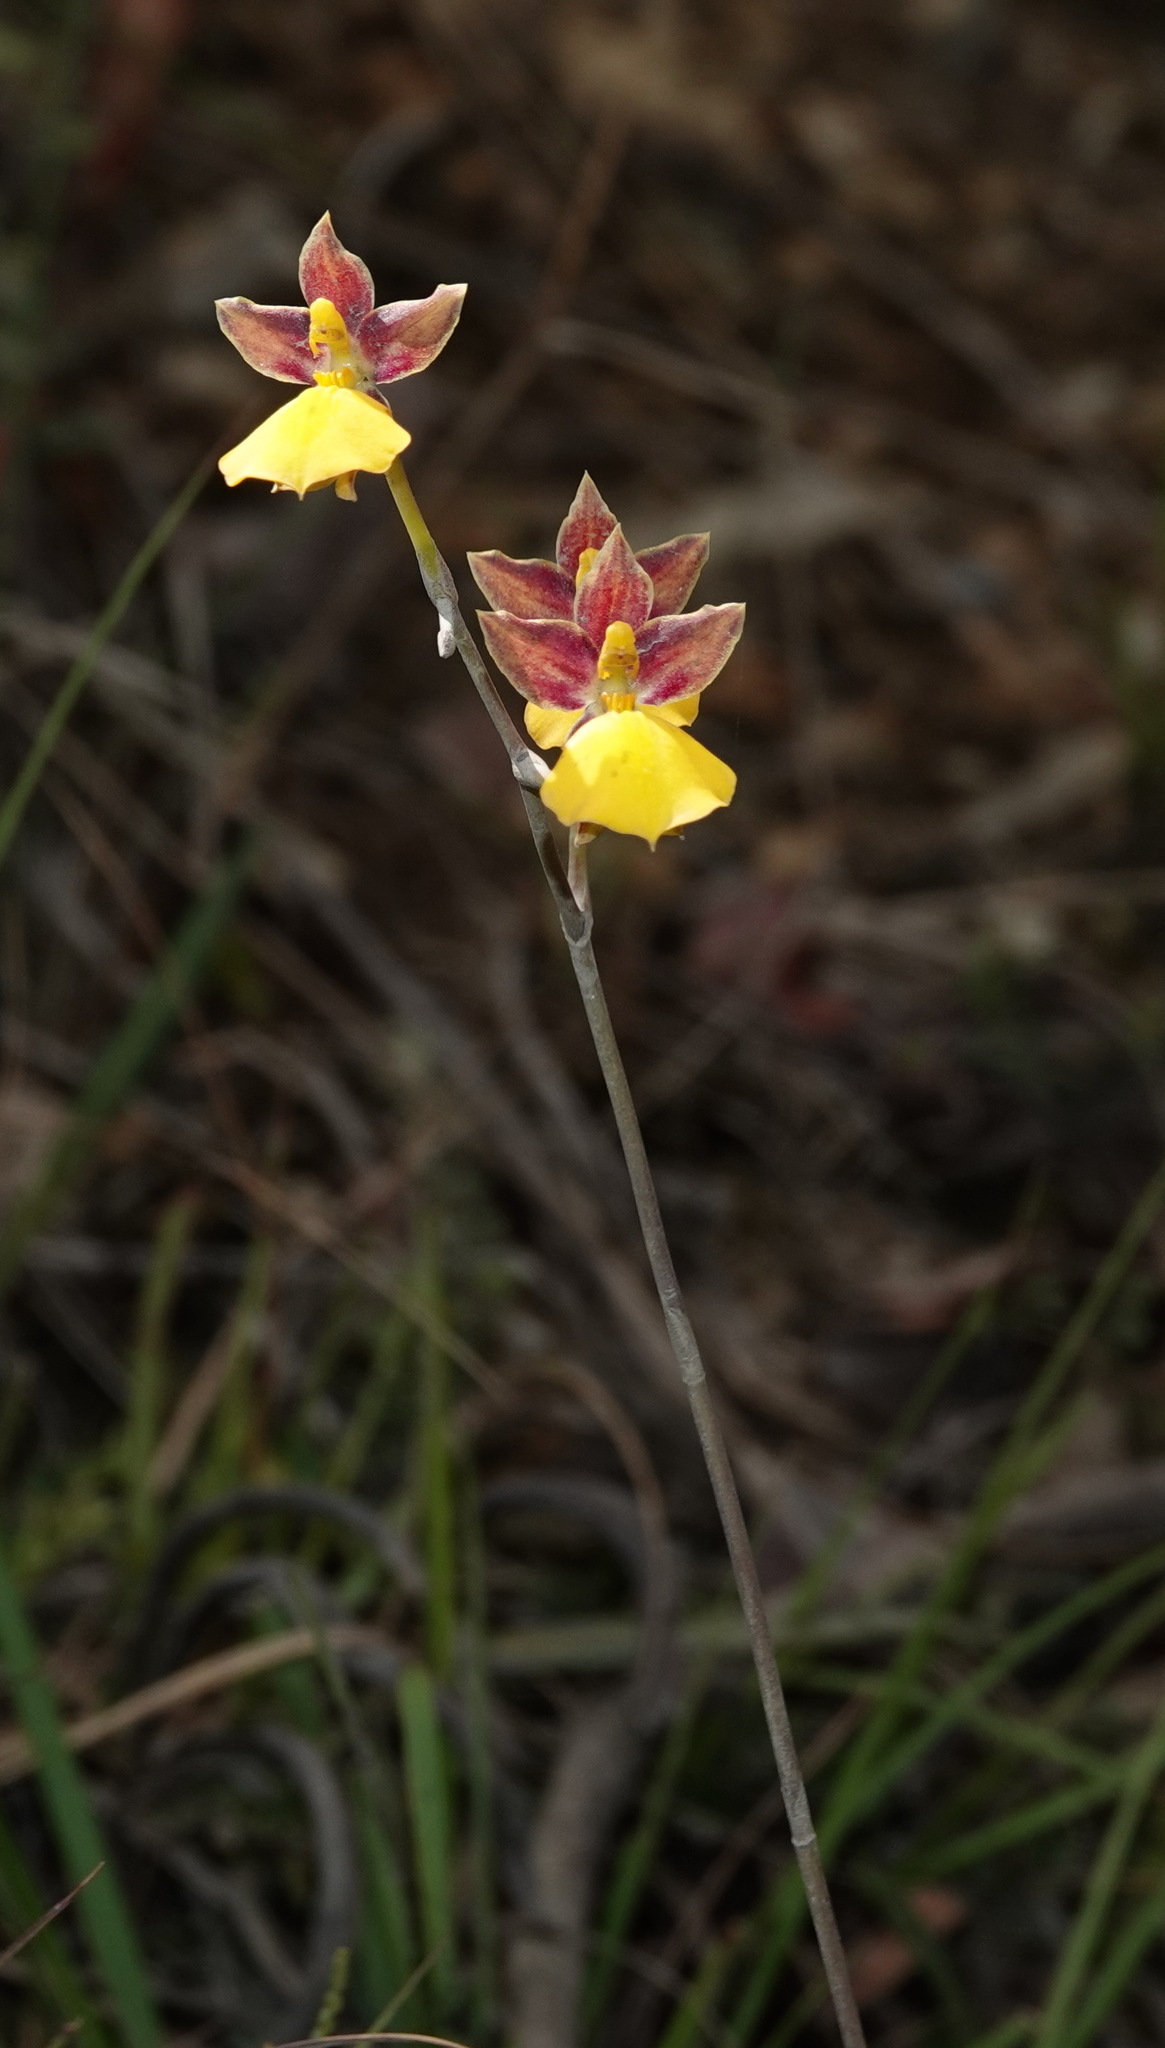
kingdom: Plantae
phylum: Tracheophyta
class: Liliopsida
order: Asparagales
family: Orchidaceae
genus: Cyrtochilum
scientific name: Cyrtochilum aureum
